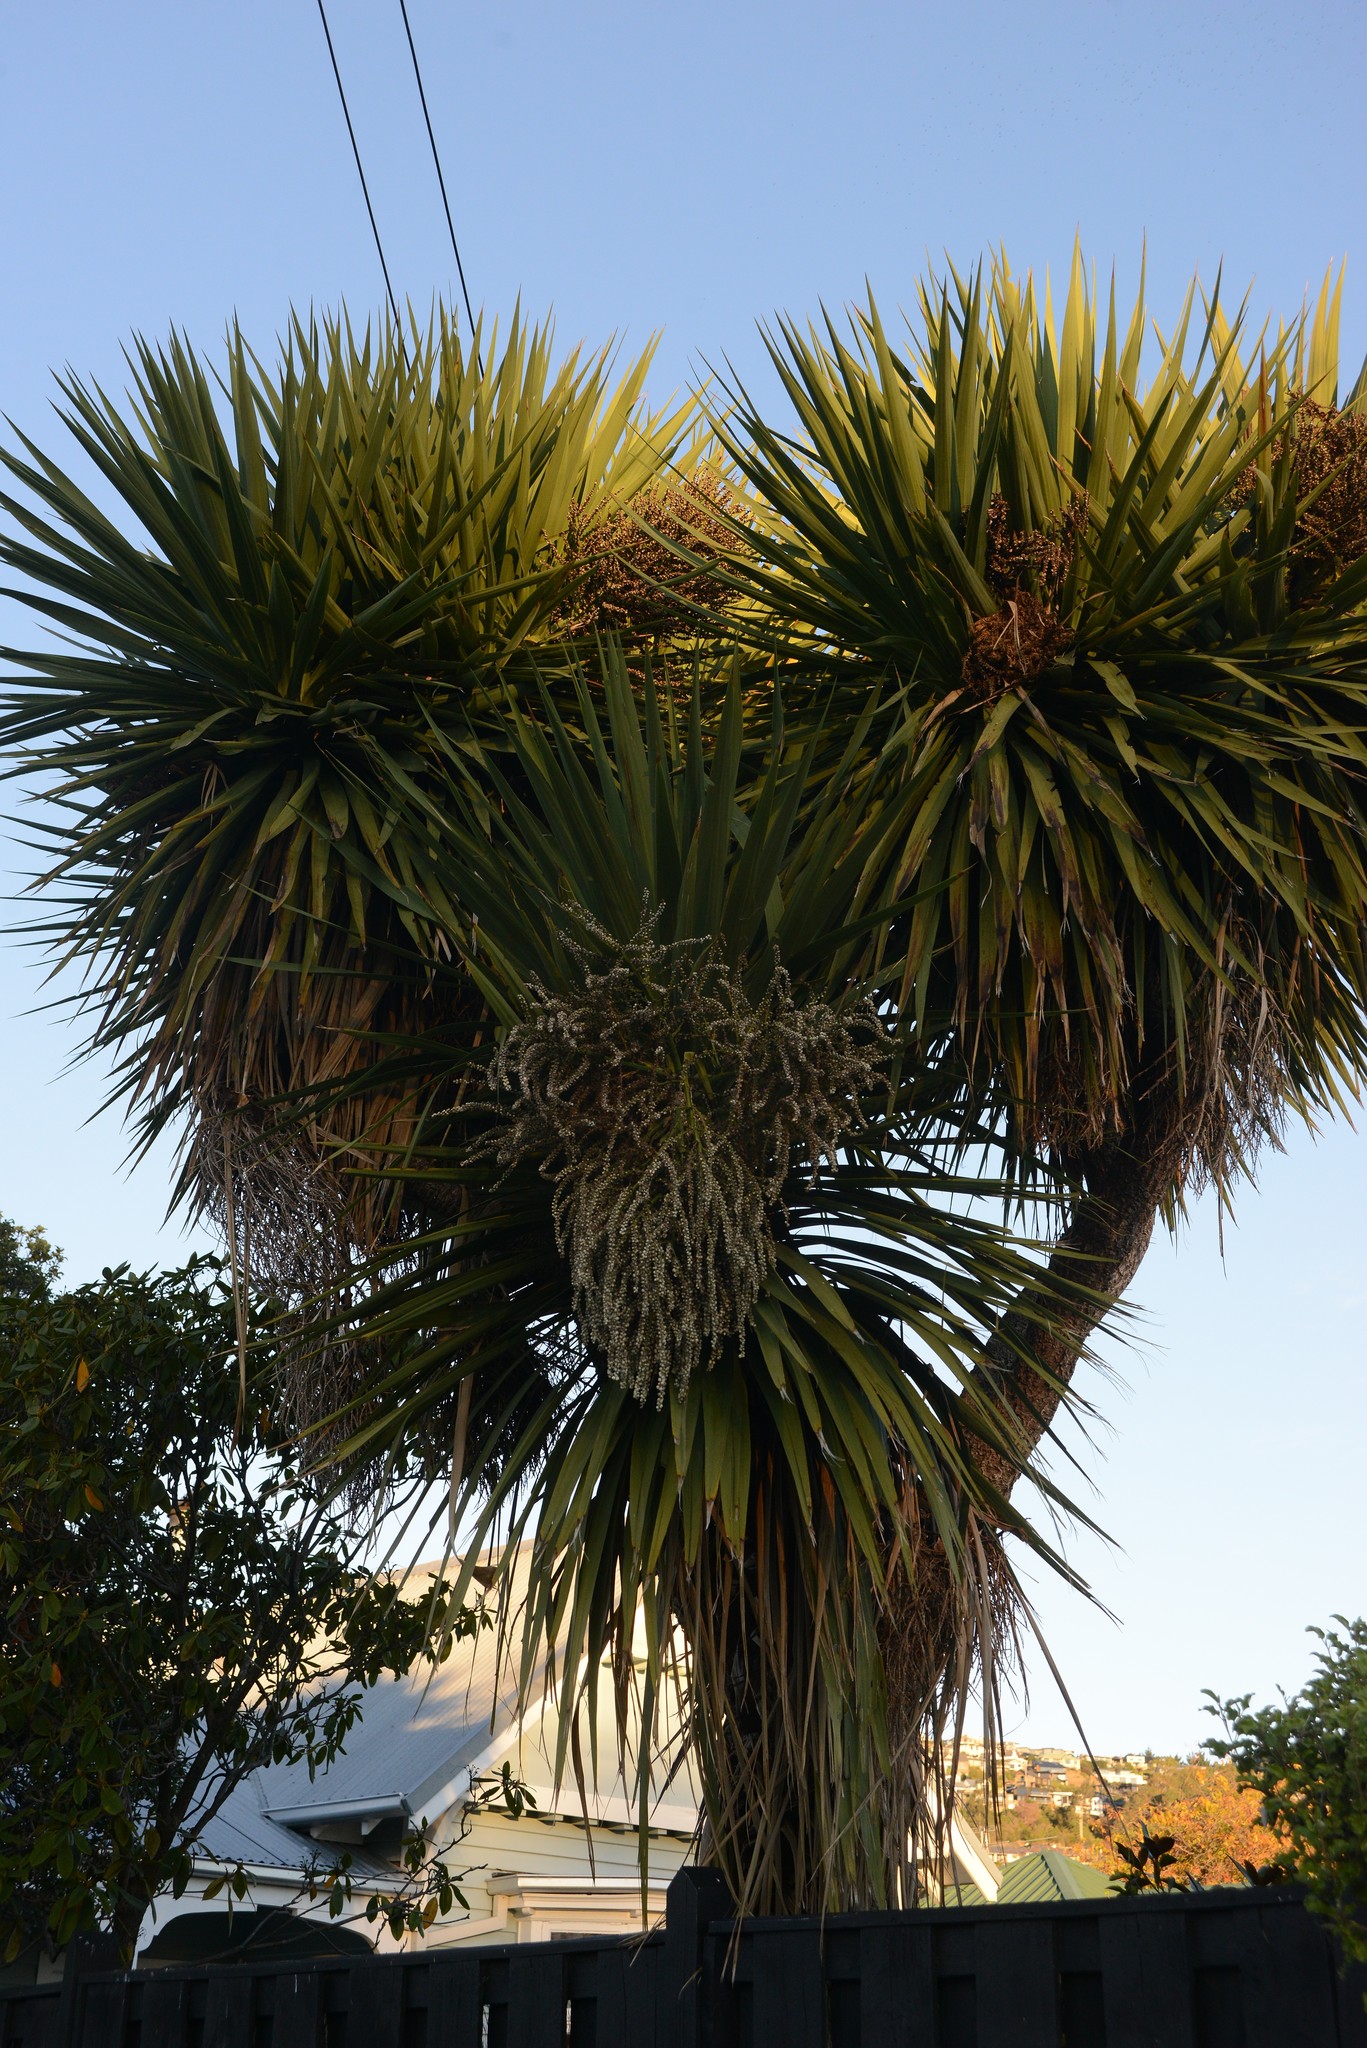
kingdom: Plantae
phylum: Tracheophyta
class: Liliopsida
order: Asparagales
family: Asparagaceae
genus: Cordyline
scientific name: Cordyline australis
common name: Cabbage-palm
